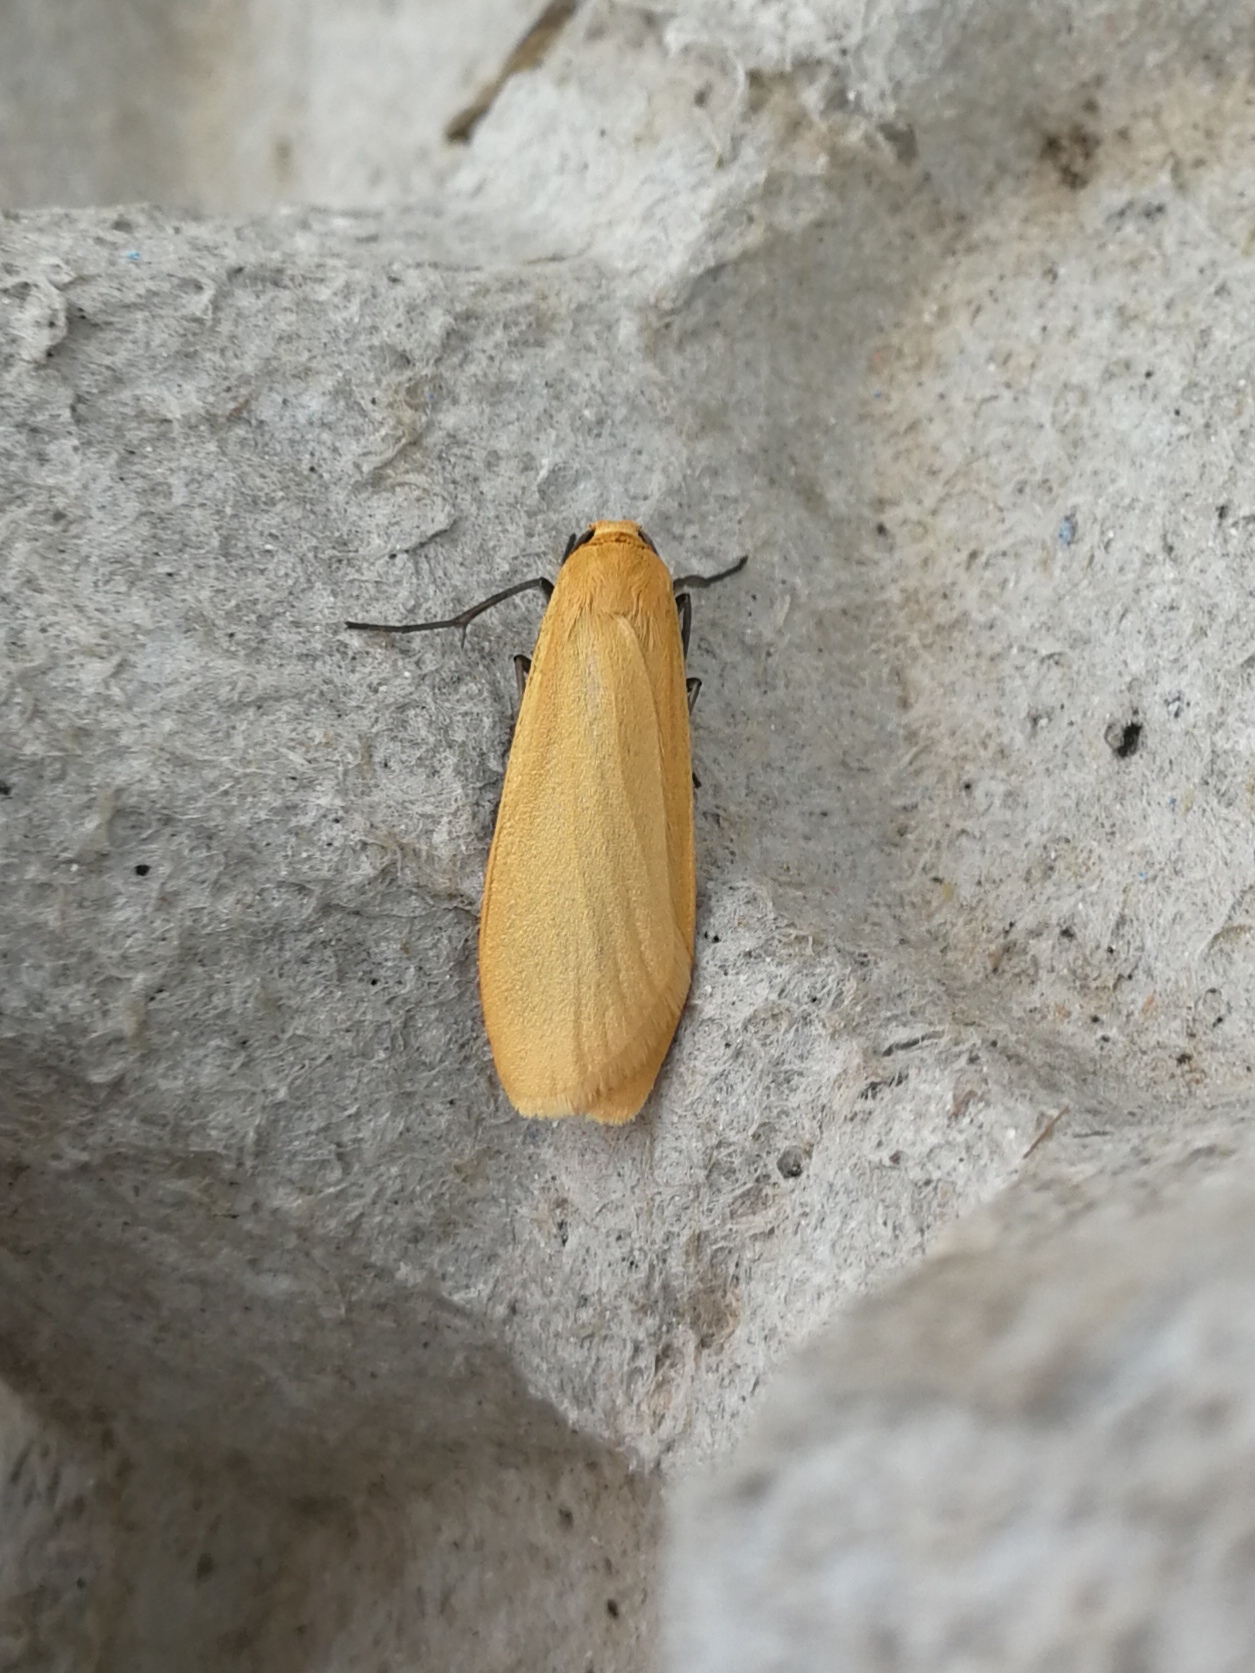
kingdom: Animalia
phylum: Arthropoda
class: Insecta
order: Lepidoptera
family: Erebidae
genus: Wittia
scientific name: Wittia sororcula
